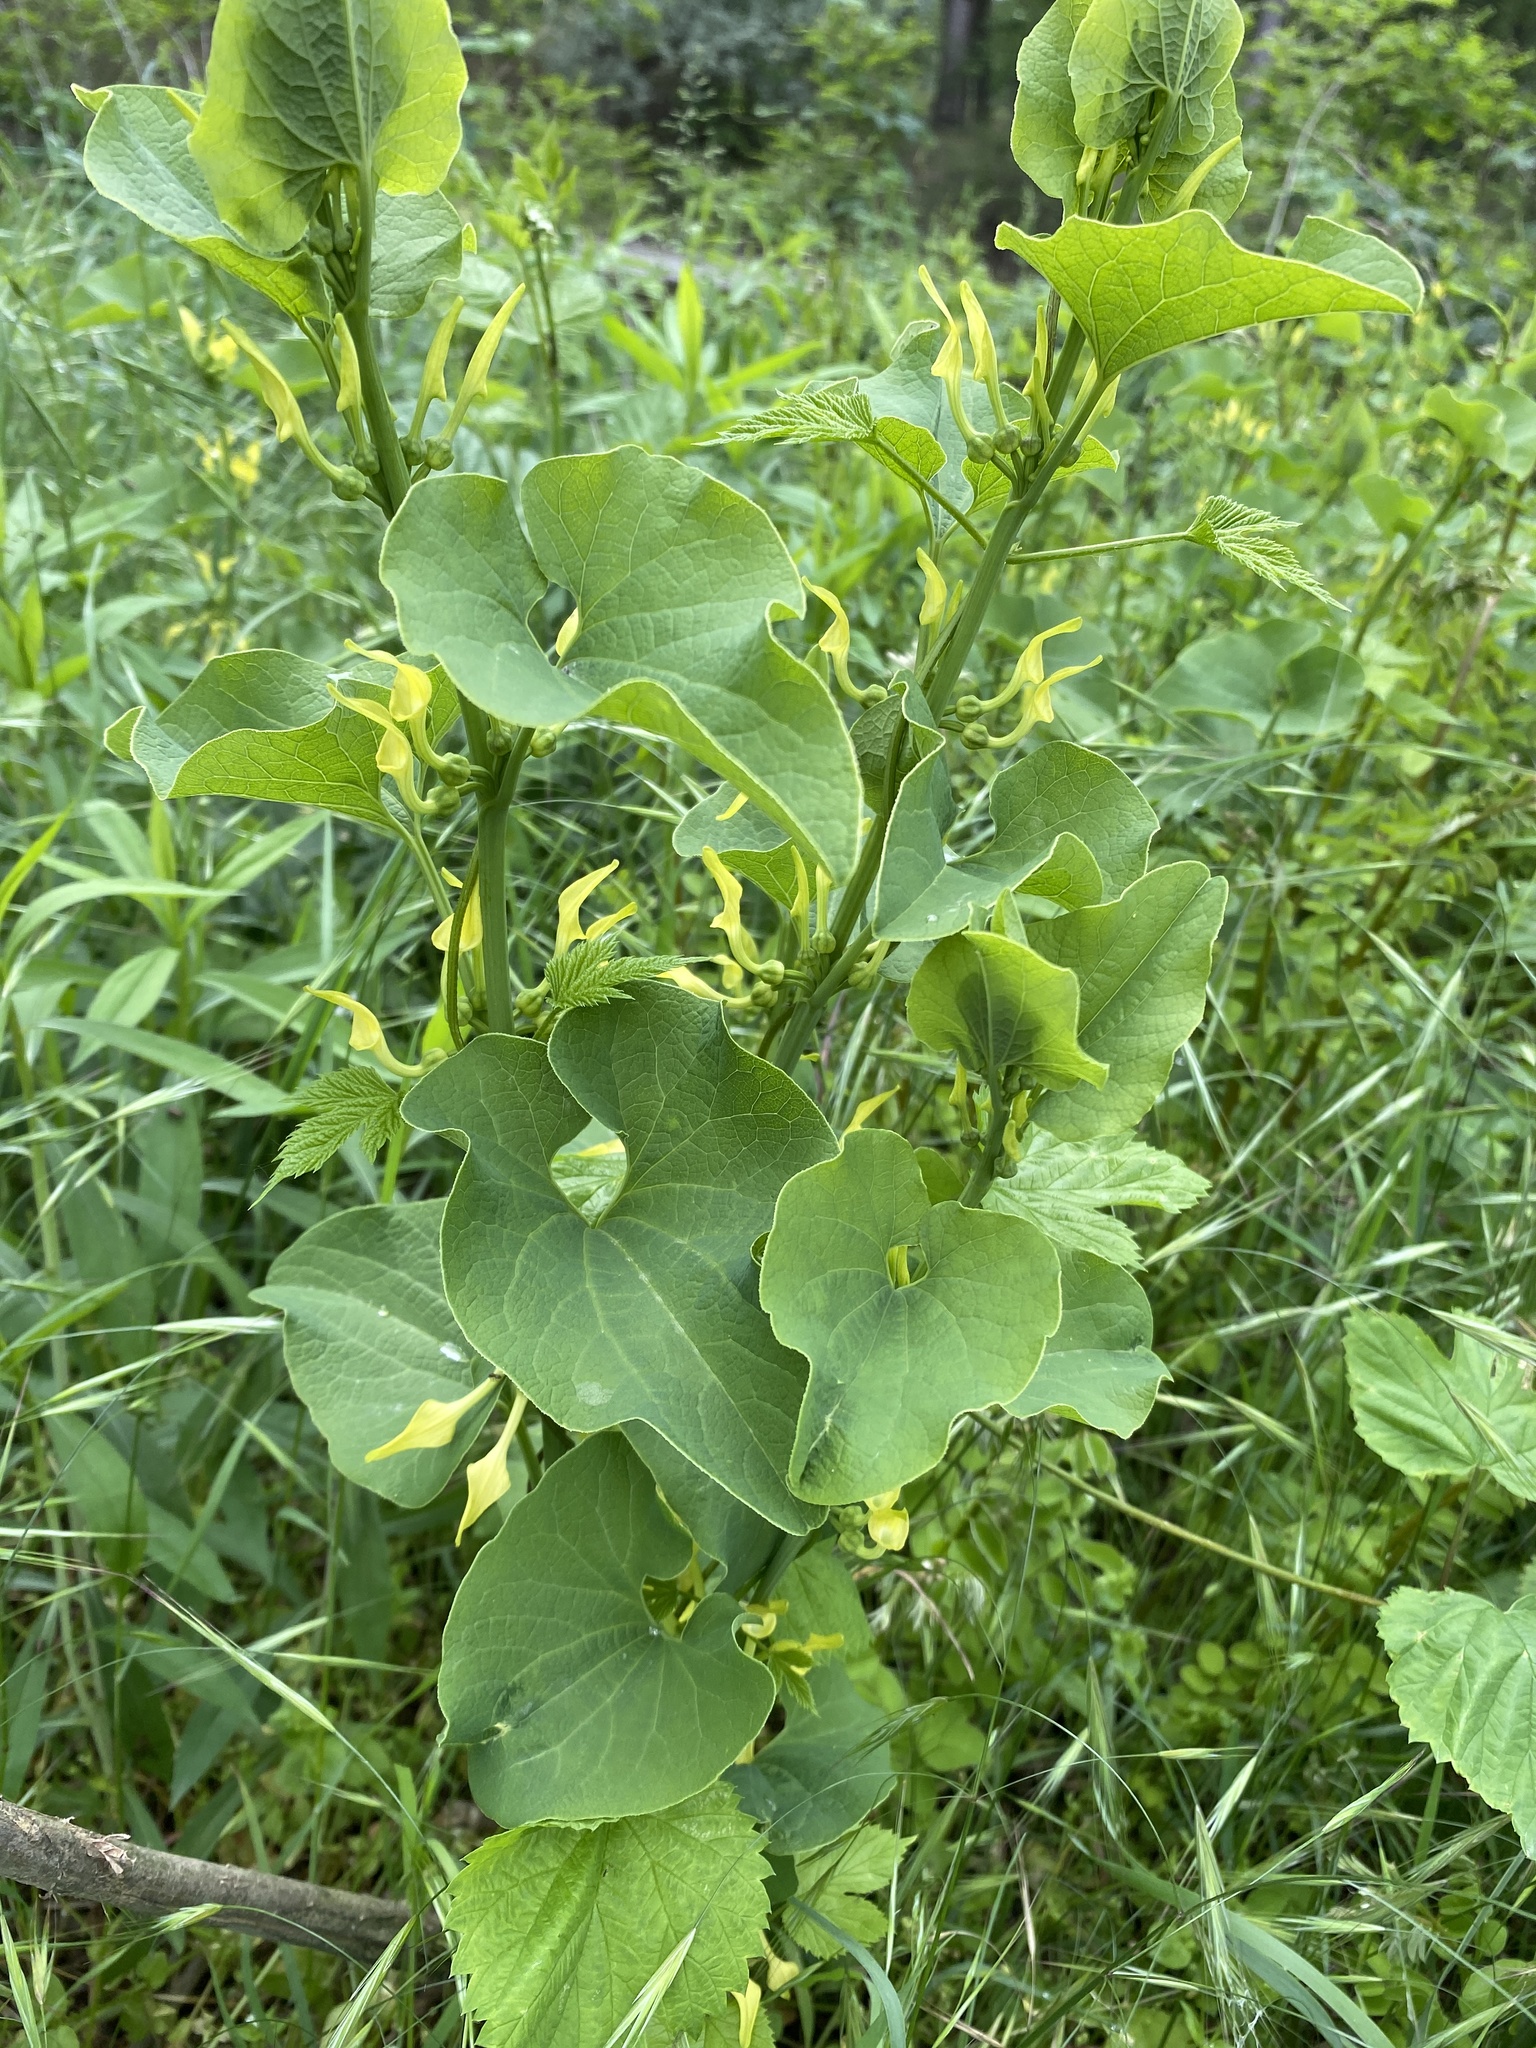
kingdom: Plantae
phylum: Tracheophyta
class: Magnoliopsida
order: Piperales
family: Aristolochiaceae
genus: Aristolochia
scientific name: Aristolochia clematitis
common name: Birthwort
